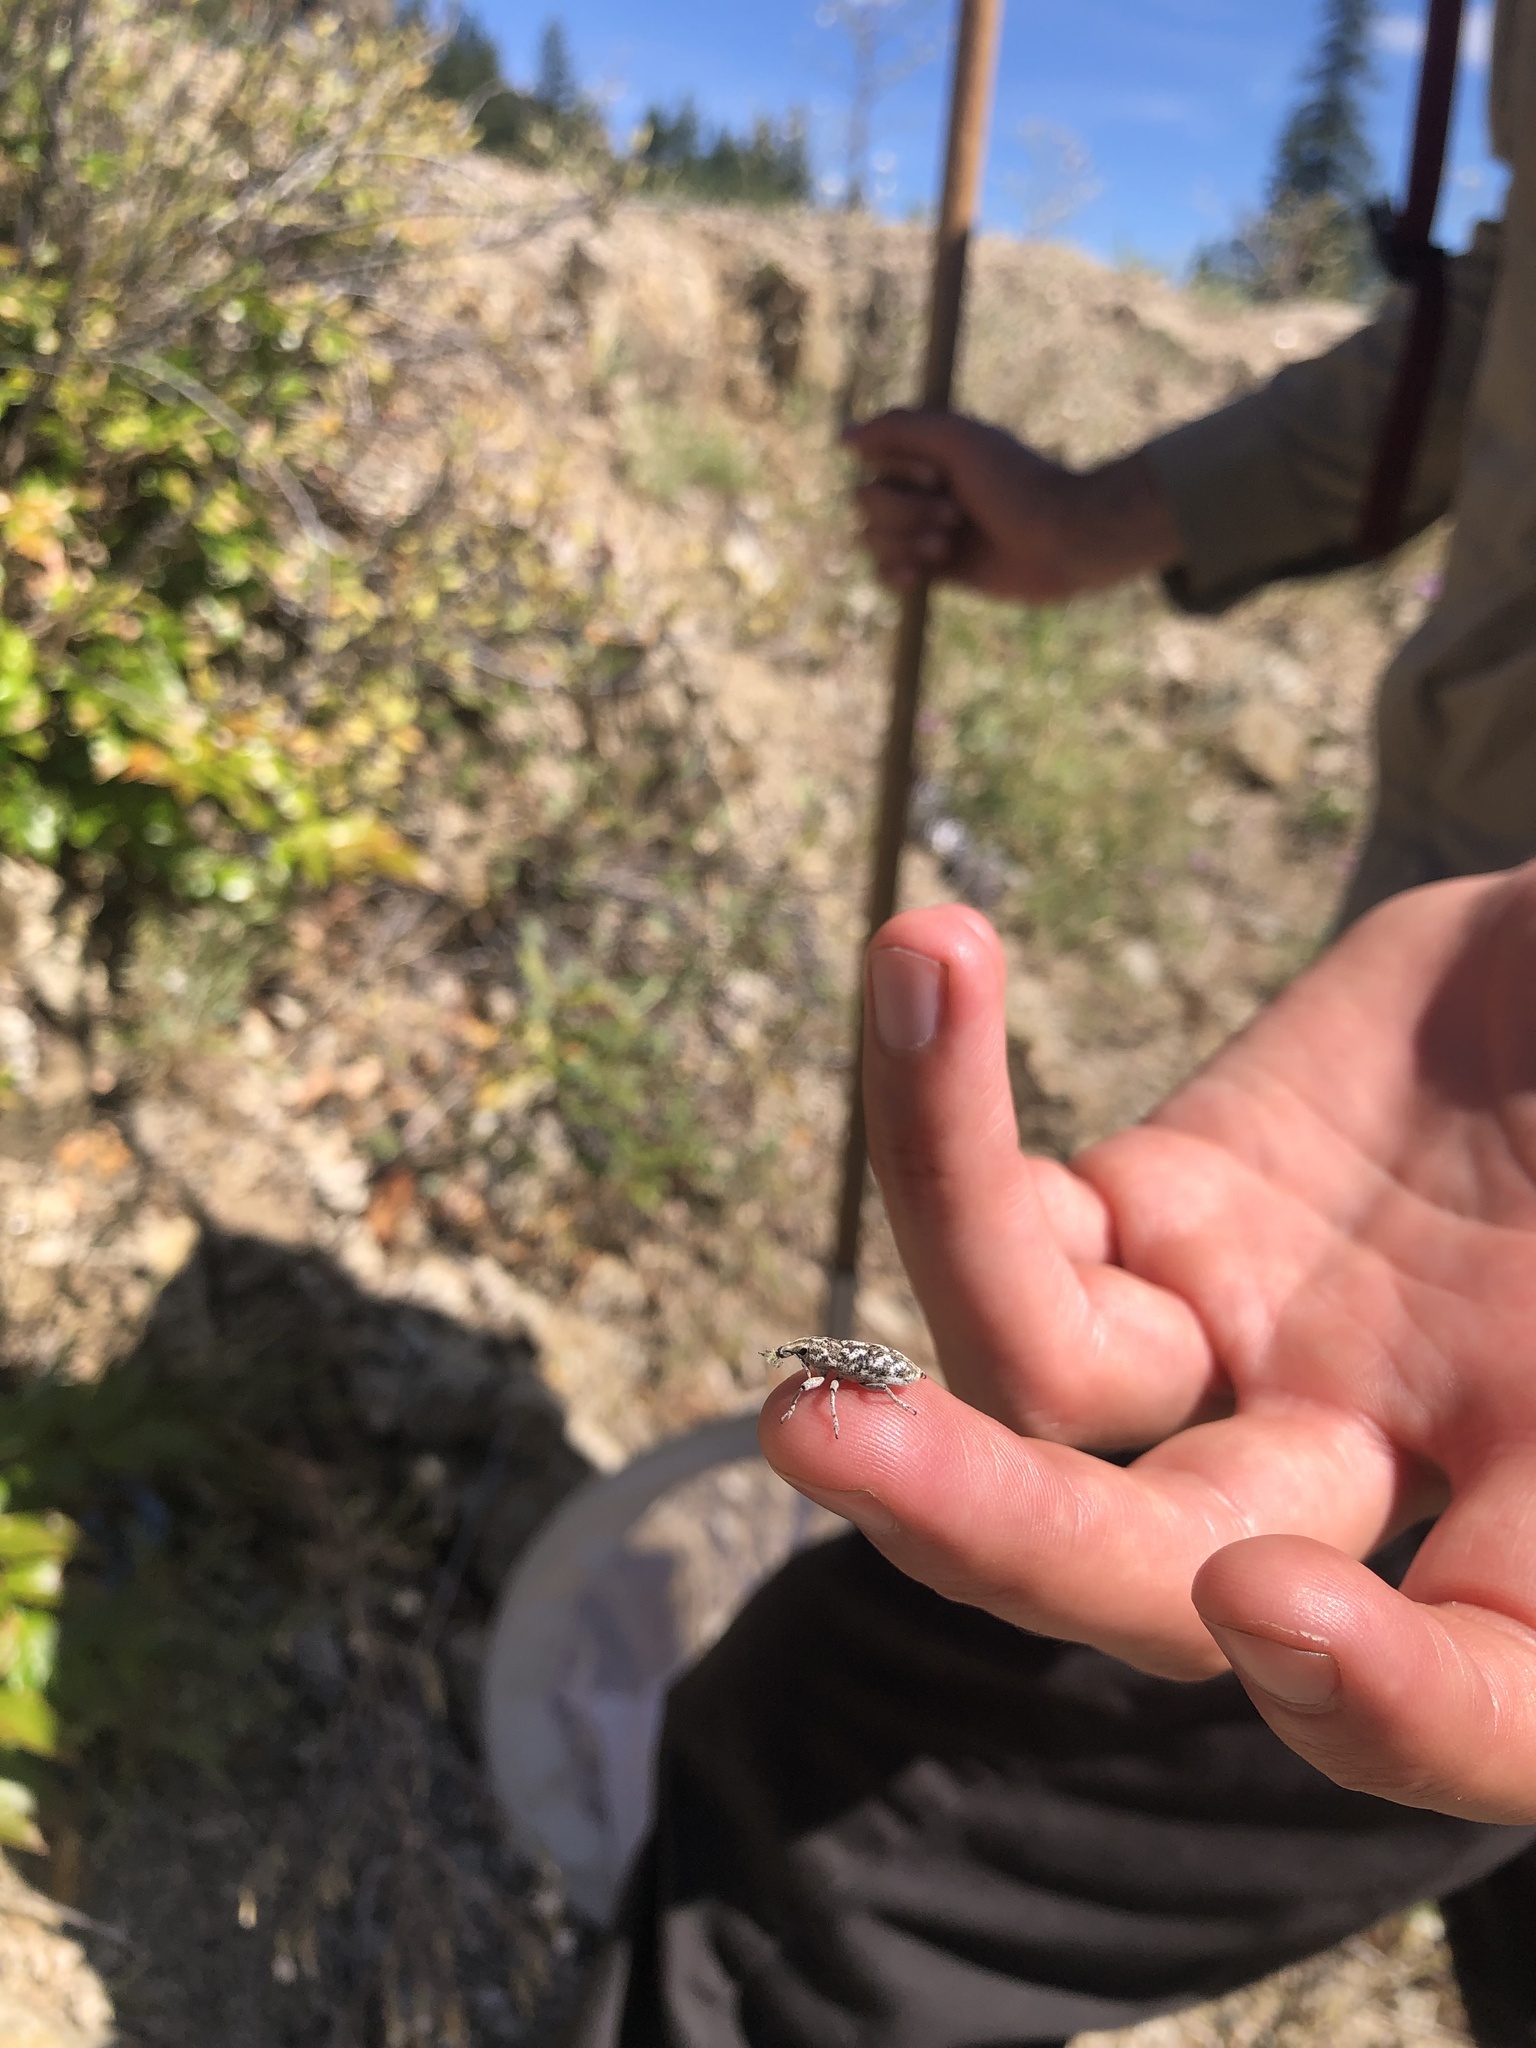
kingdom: Animalia
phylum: Arthropoda
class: Insecta
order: Coleoptera
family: Curculionidae
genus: Cleonus
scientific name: Cleonus achates
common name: Root weevil
